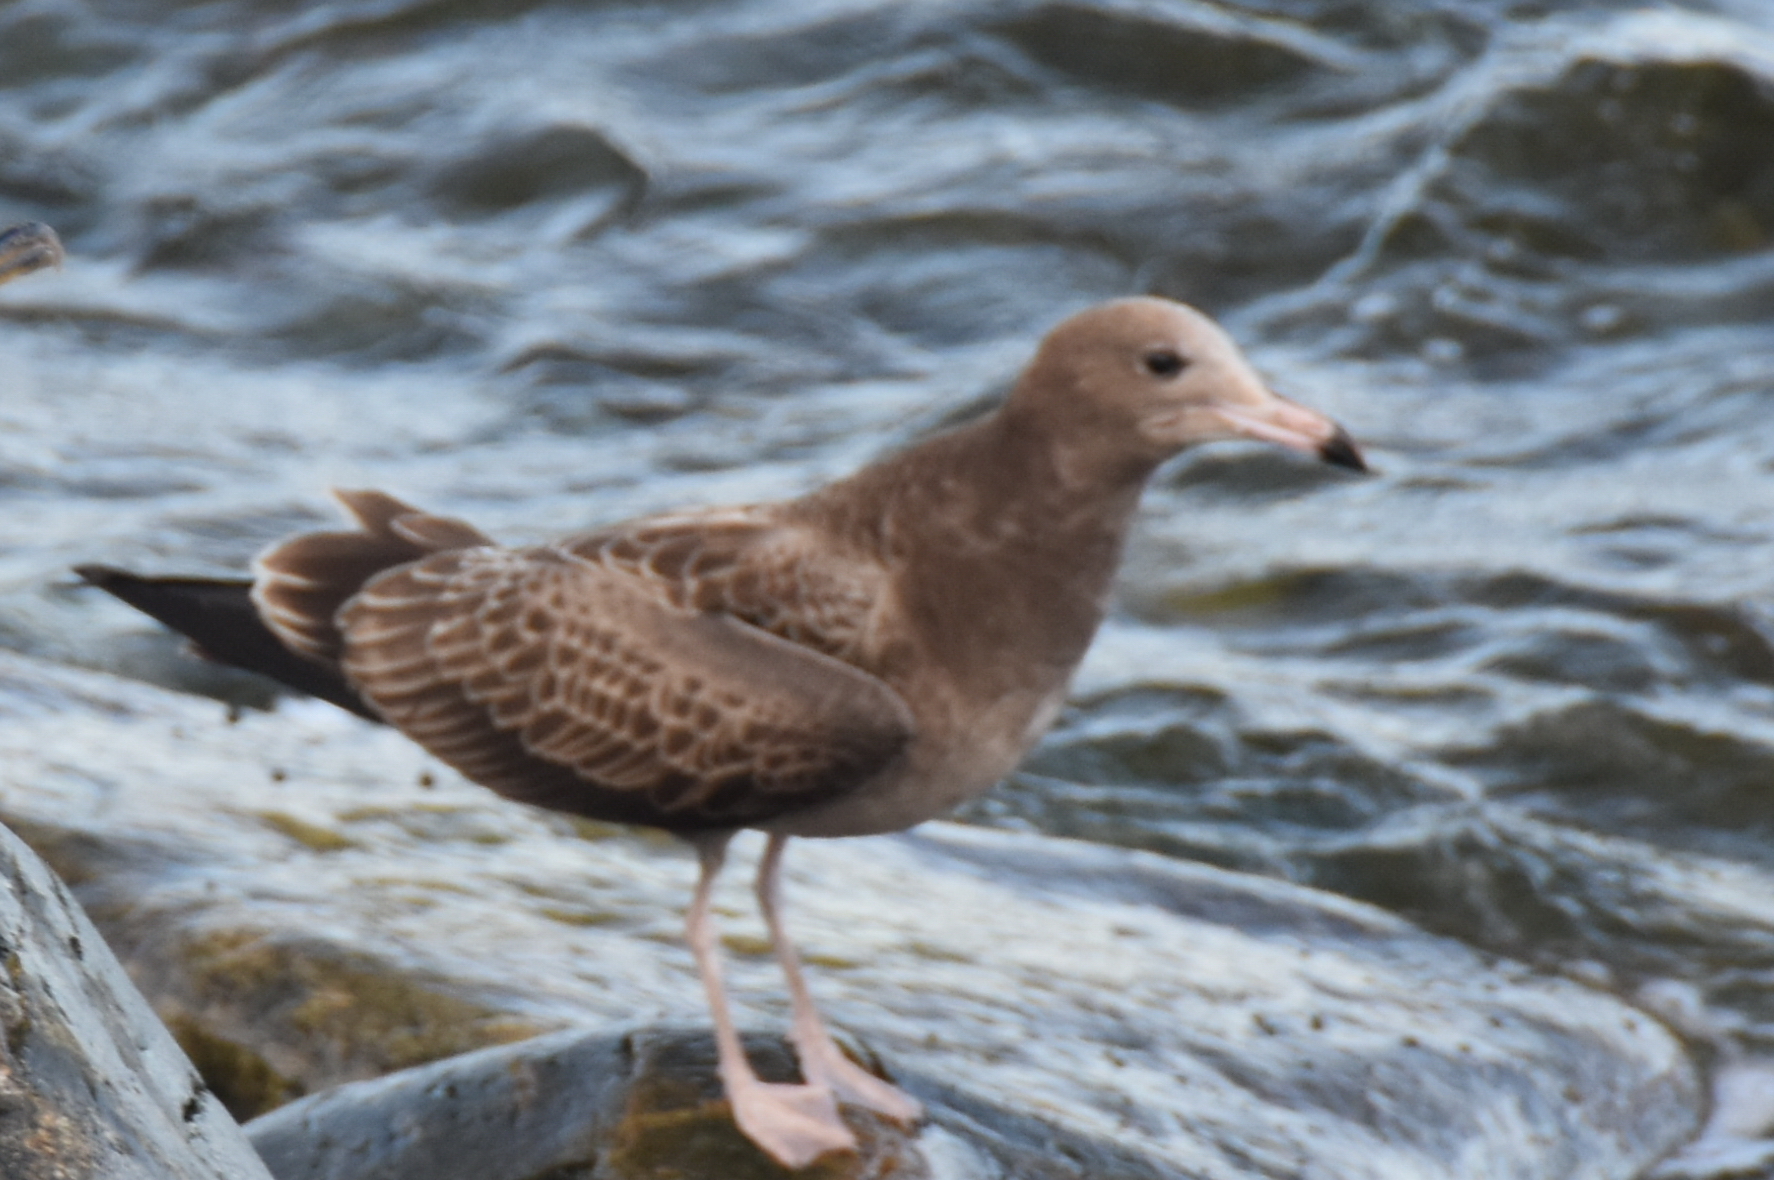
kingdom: Animalia
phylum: Chordata
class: Aves
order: Charadriiformes
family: Laridae
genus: Larus
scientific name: Larus crassirostris
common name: Black-tailed gull
